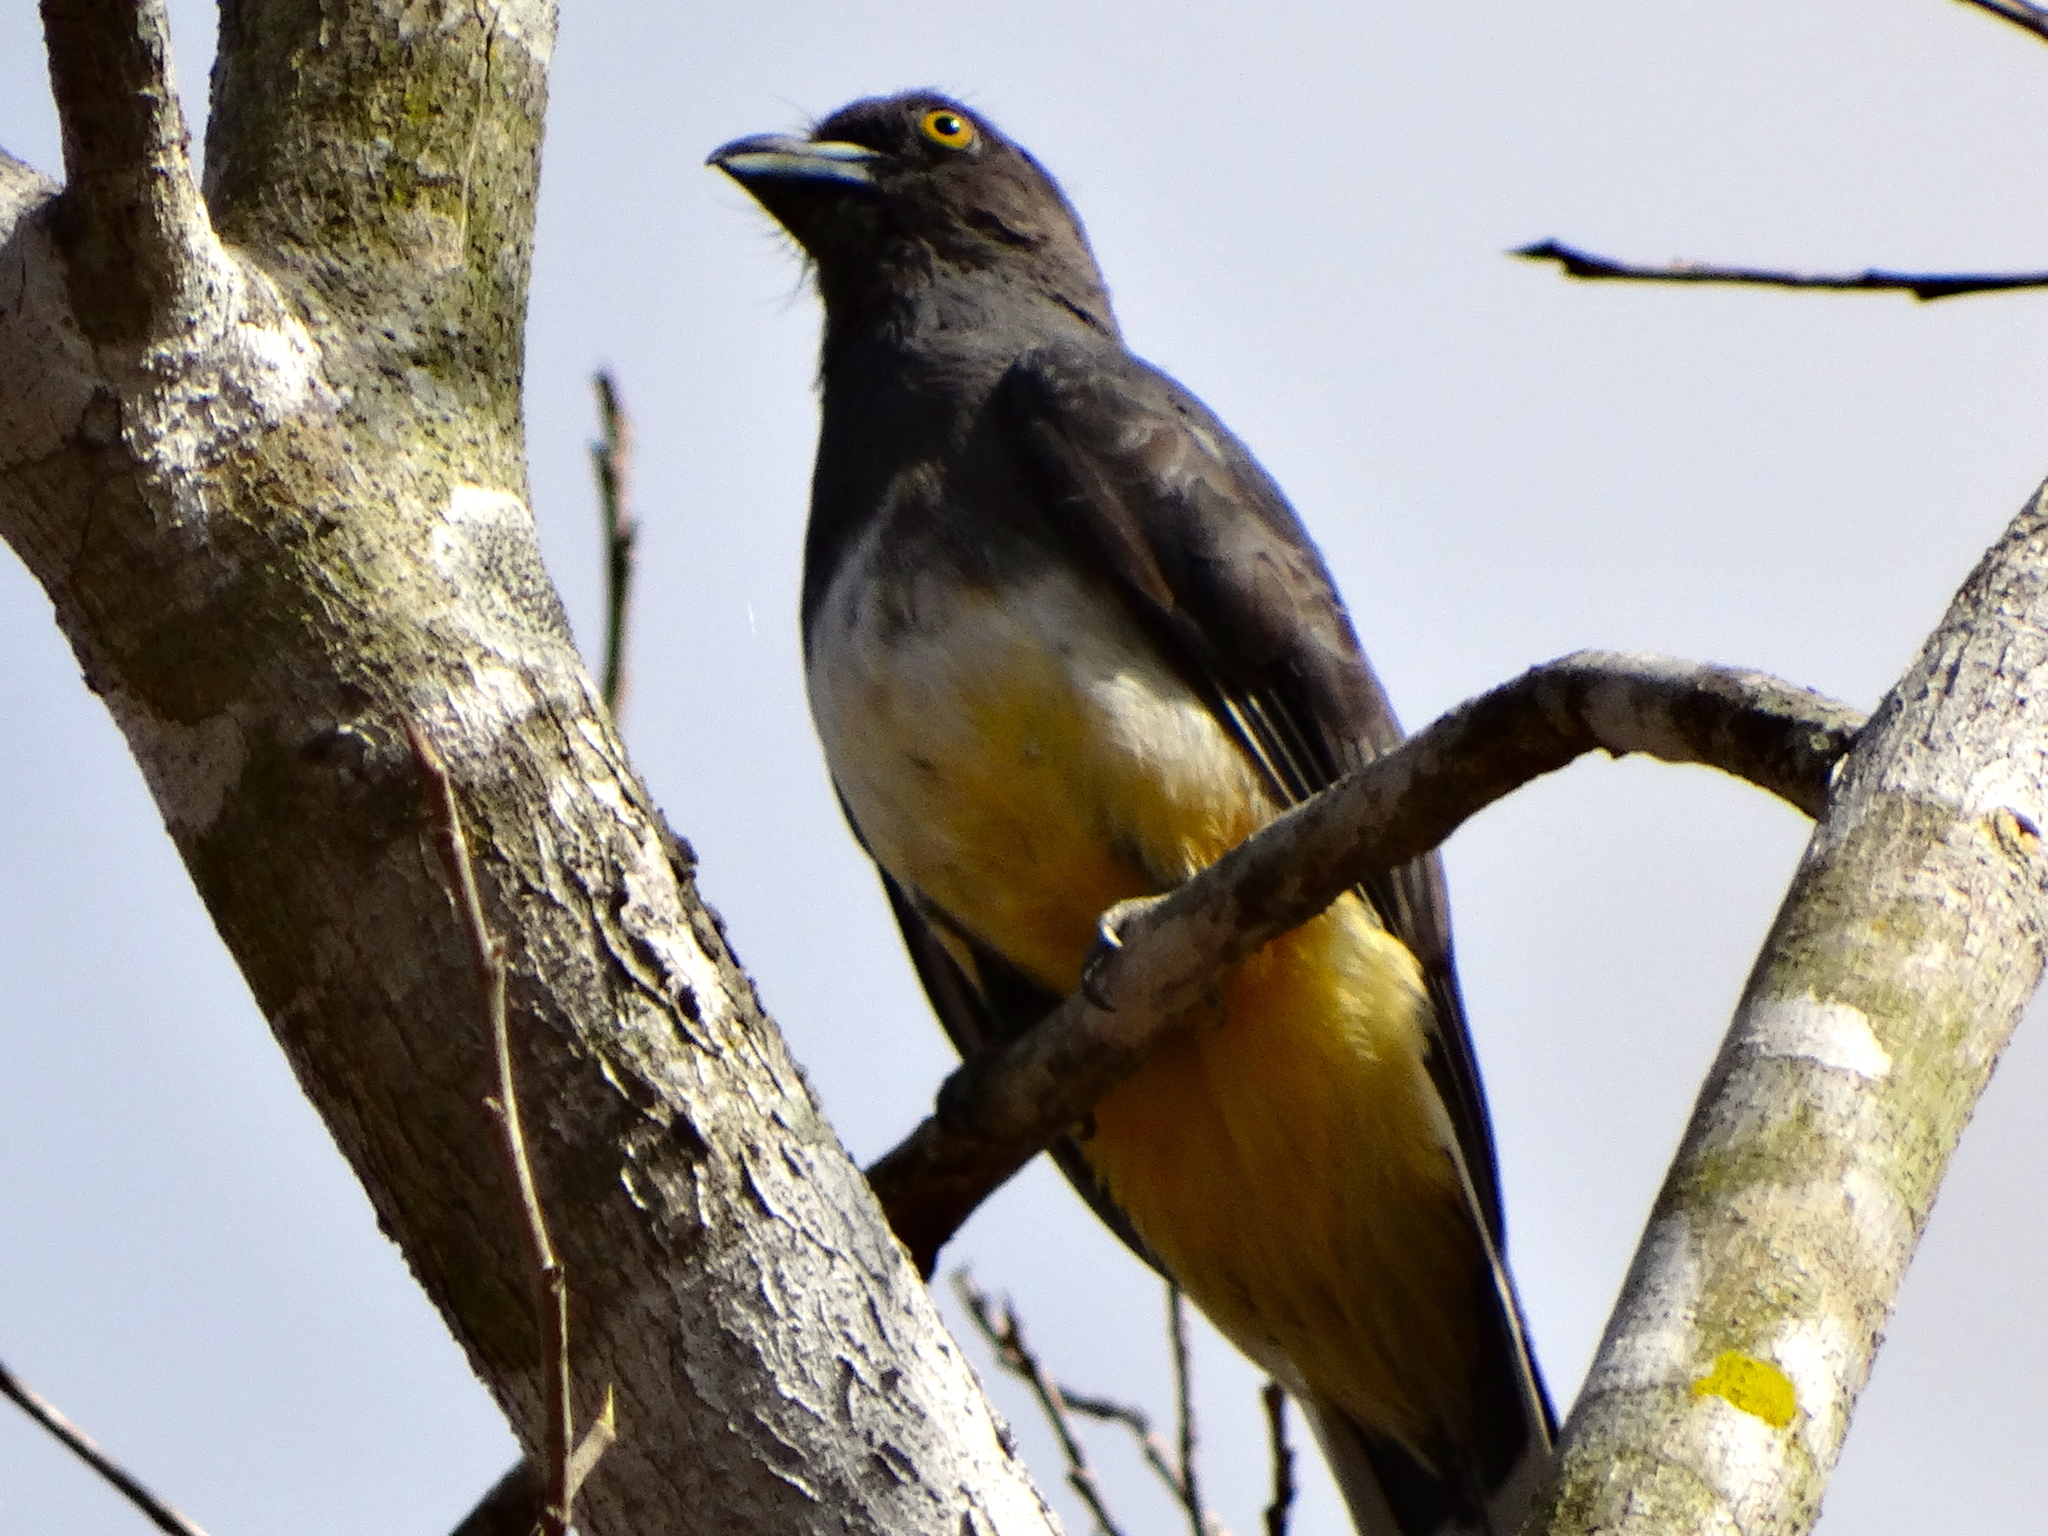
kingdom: Animalia
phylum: Chordata
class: Aves
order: Trogoniformes
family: Trogonidae
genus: Trogon
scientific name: Trogon citreolus
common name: Citreoline trogon
